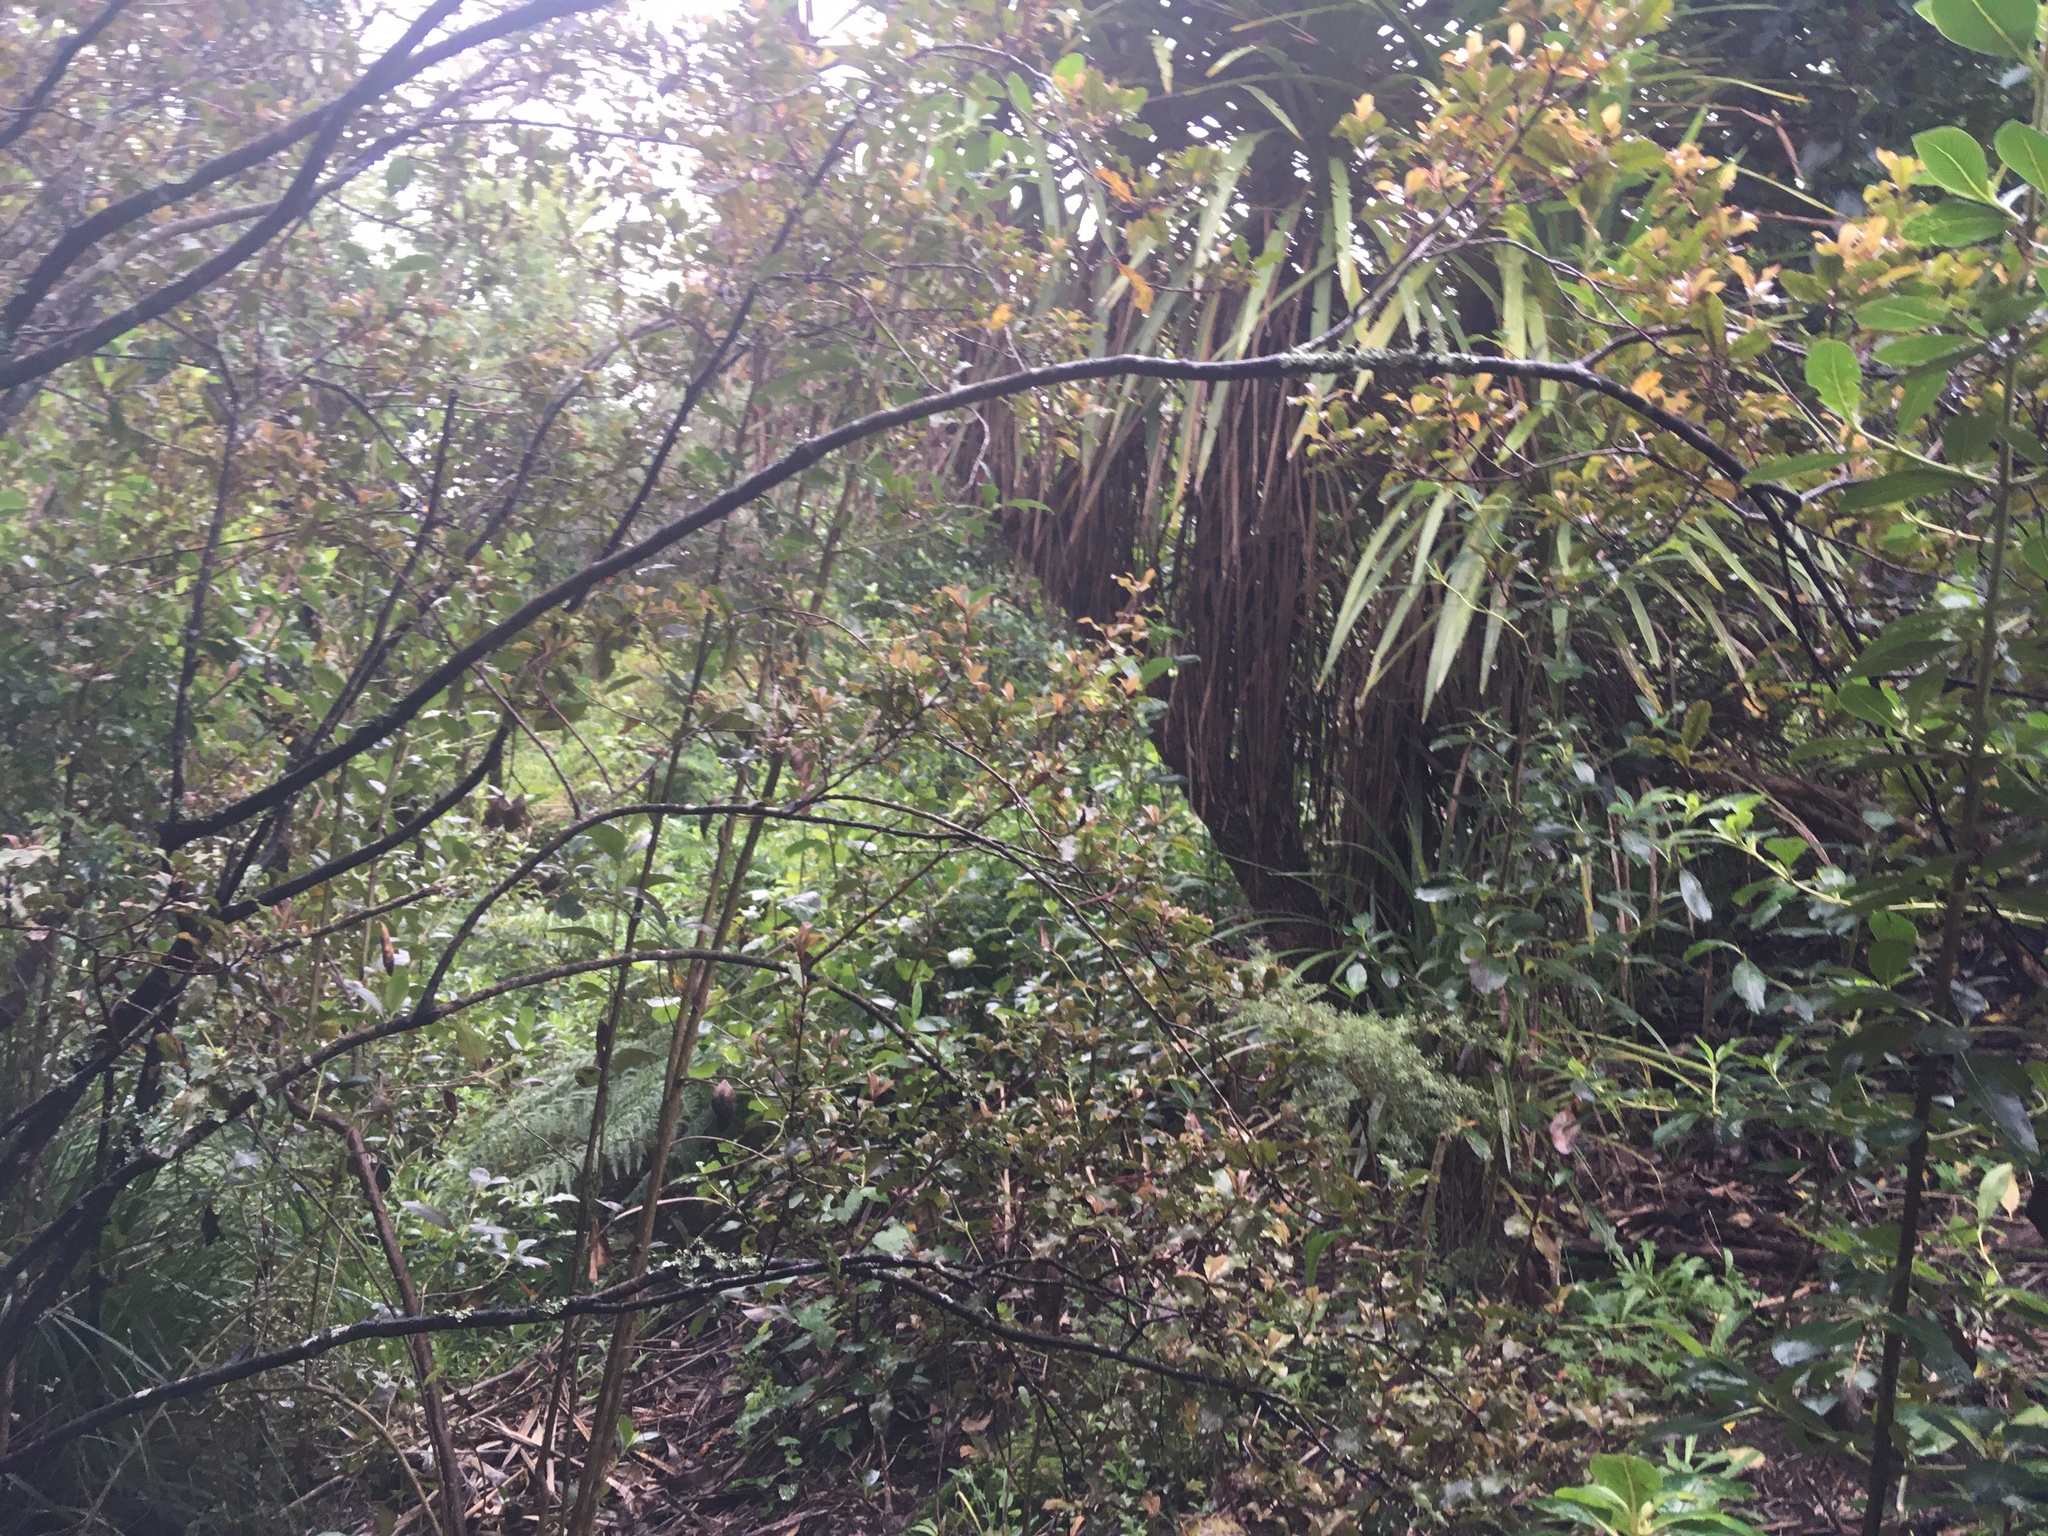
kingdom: Plantae
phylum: Tracheophyta
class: Magnoliopsida
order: Ericales
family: Primulaceae
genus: Myrsine
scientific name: Myrsine australis
